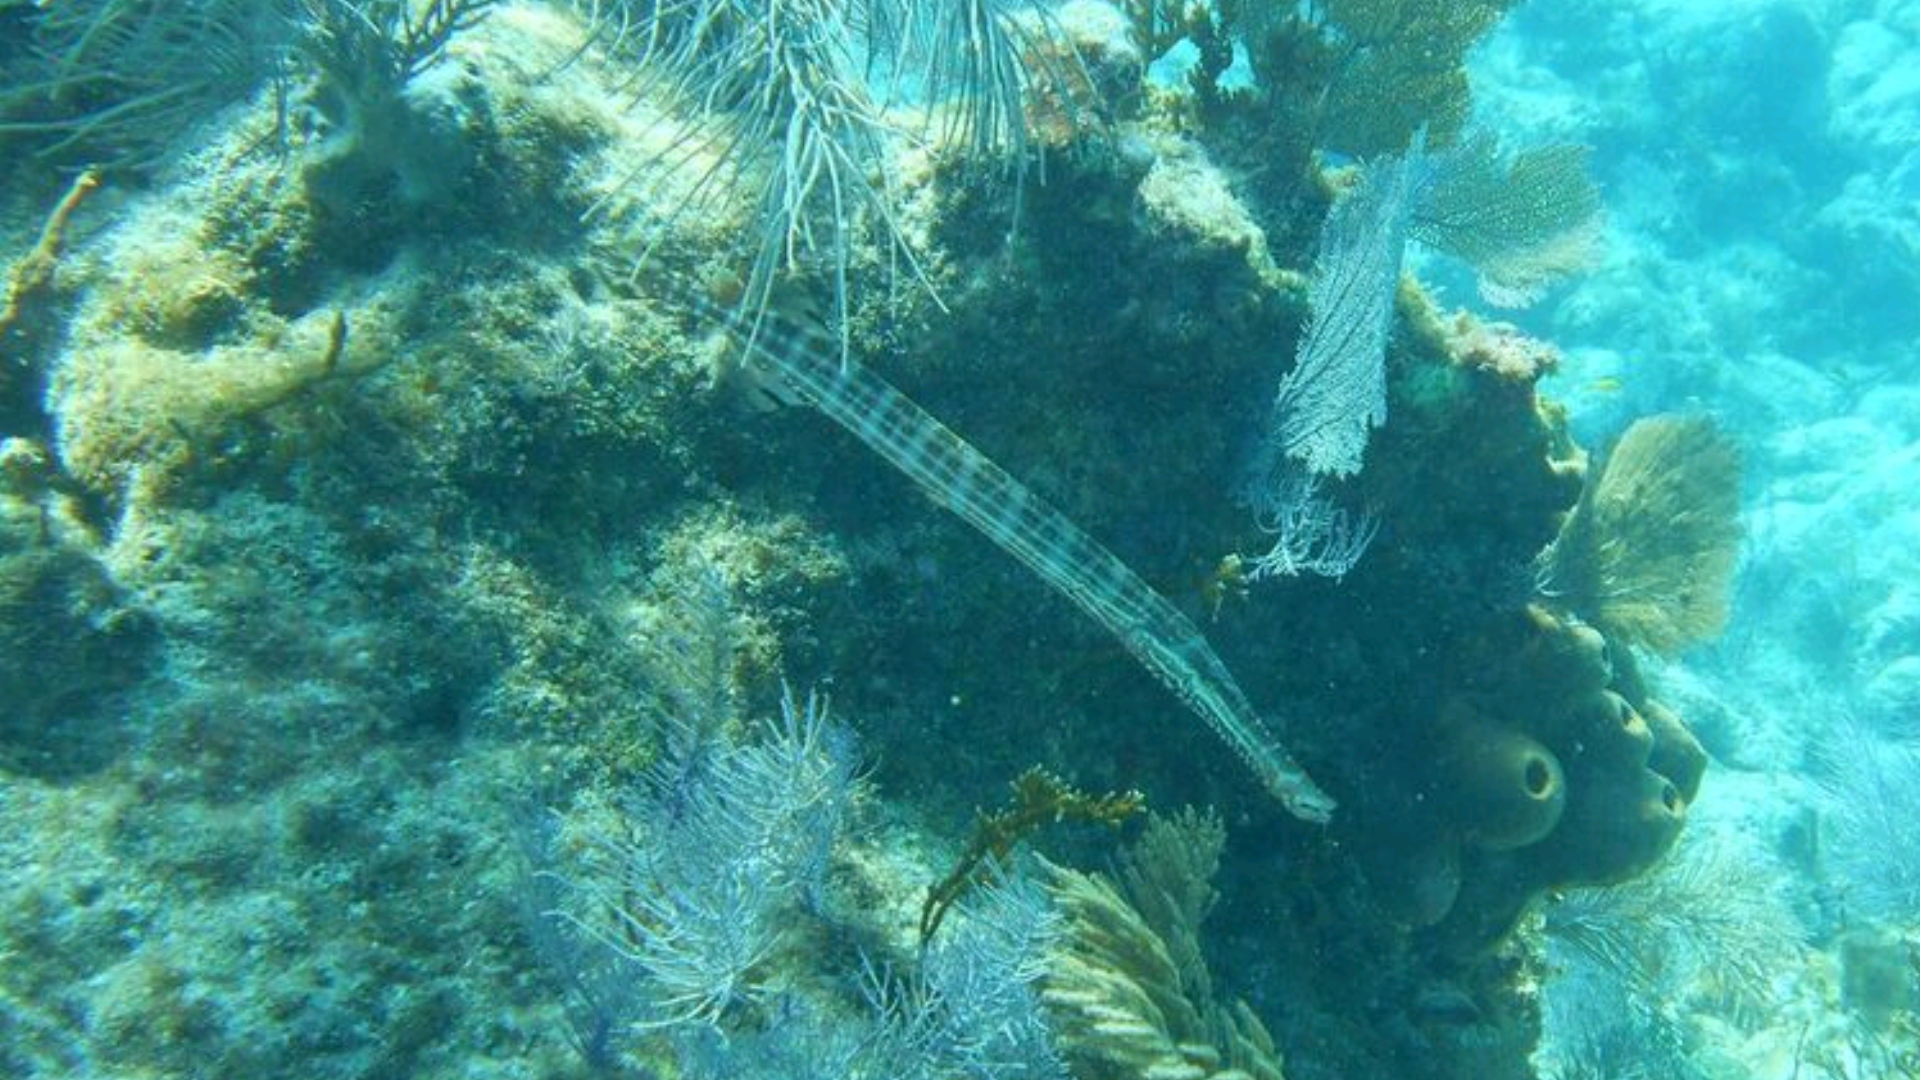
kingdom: Animalia
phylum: Chordata
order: Syngnathiformes
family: Aulostomidae
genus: Aulostomus
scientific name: Aulostomus maculatus
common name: West atlantic trumpetfish
